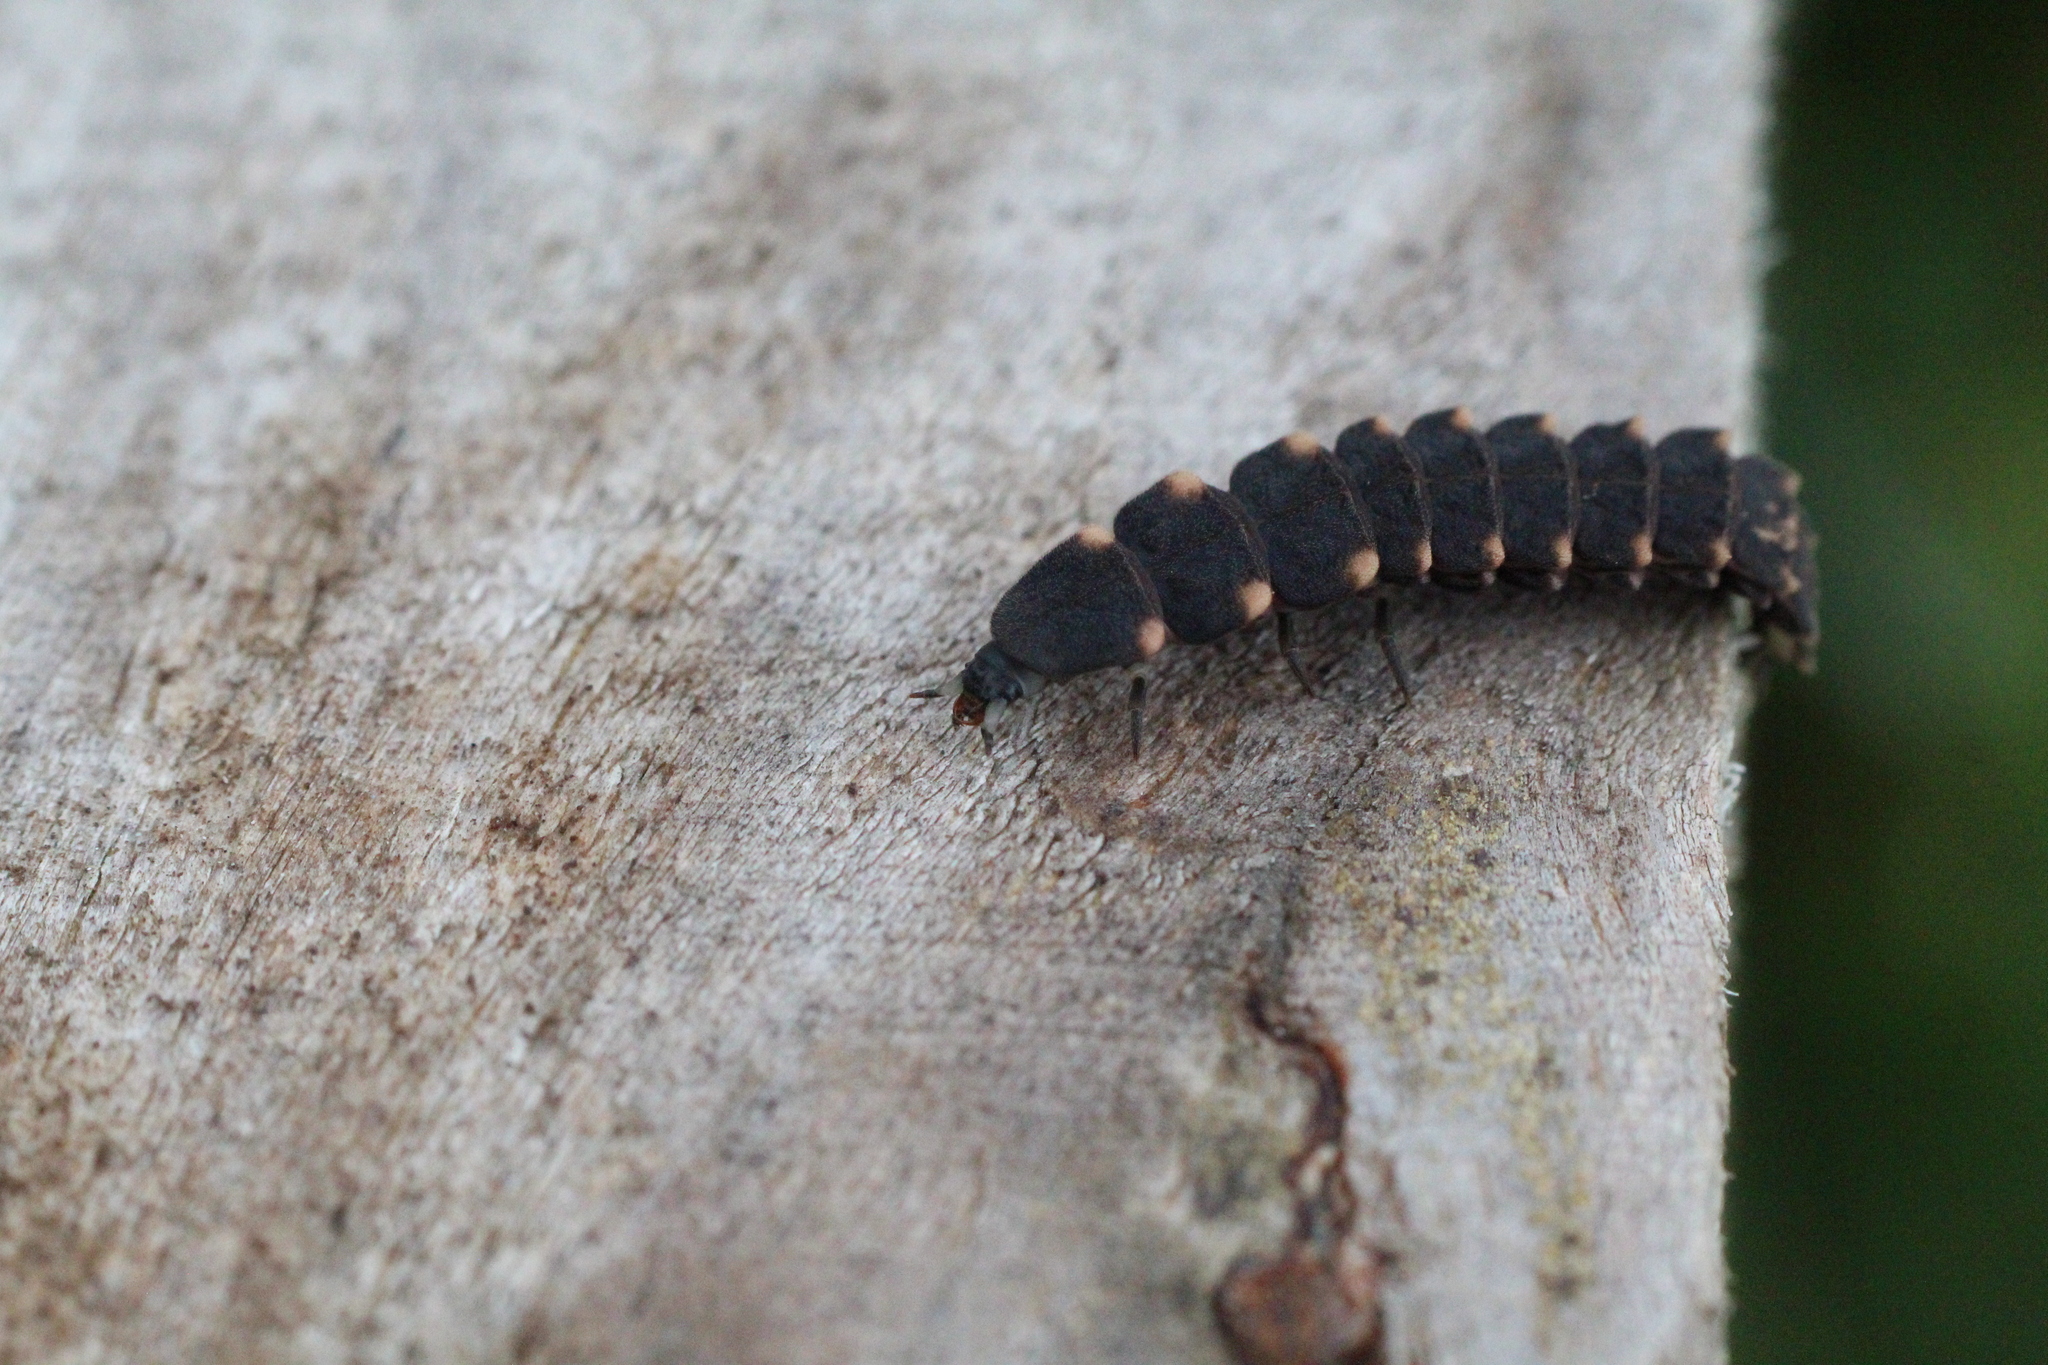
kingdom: Animalia
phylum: Arthropoda
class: Insecta
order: Coleoptera
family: Lampyridae
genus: Lampyris
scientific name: Lampyris noctiluca
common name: Glow-worm
